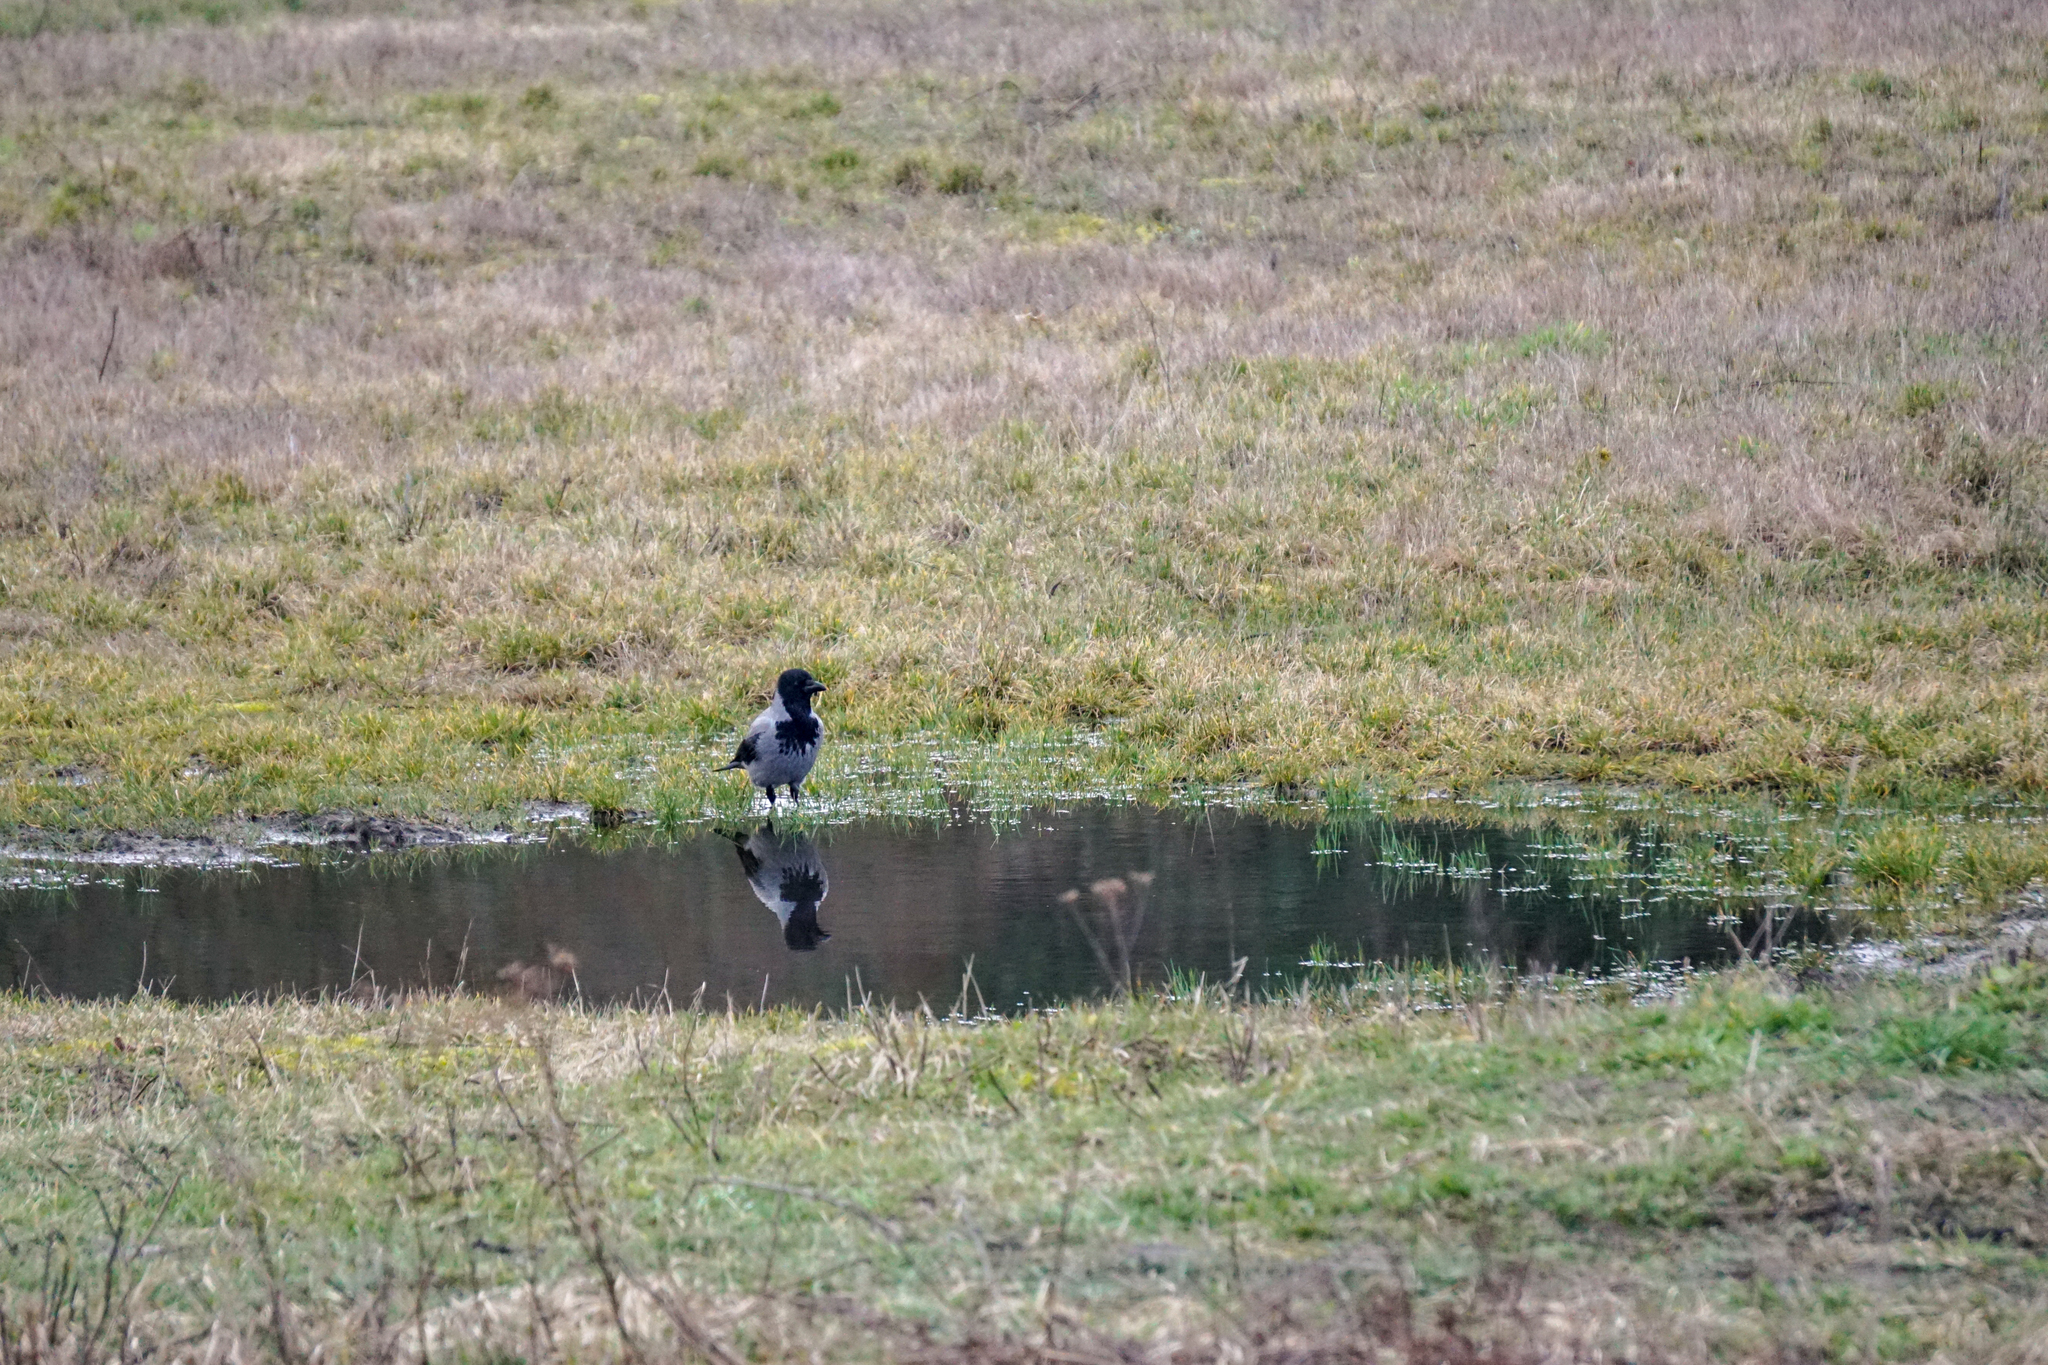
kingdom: Animalia
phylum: Chordata
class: Aves
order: Passeriformes
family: Corvidae
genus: Corvus
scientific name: Corvus cornix
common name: Hooded crow
